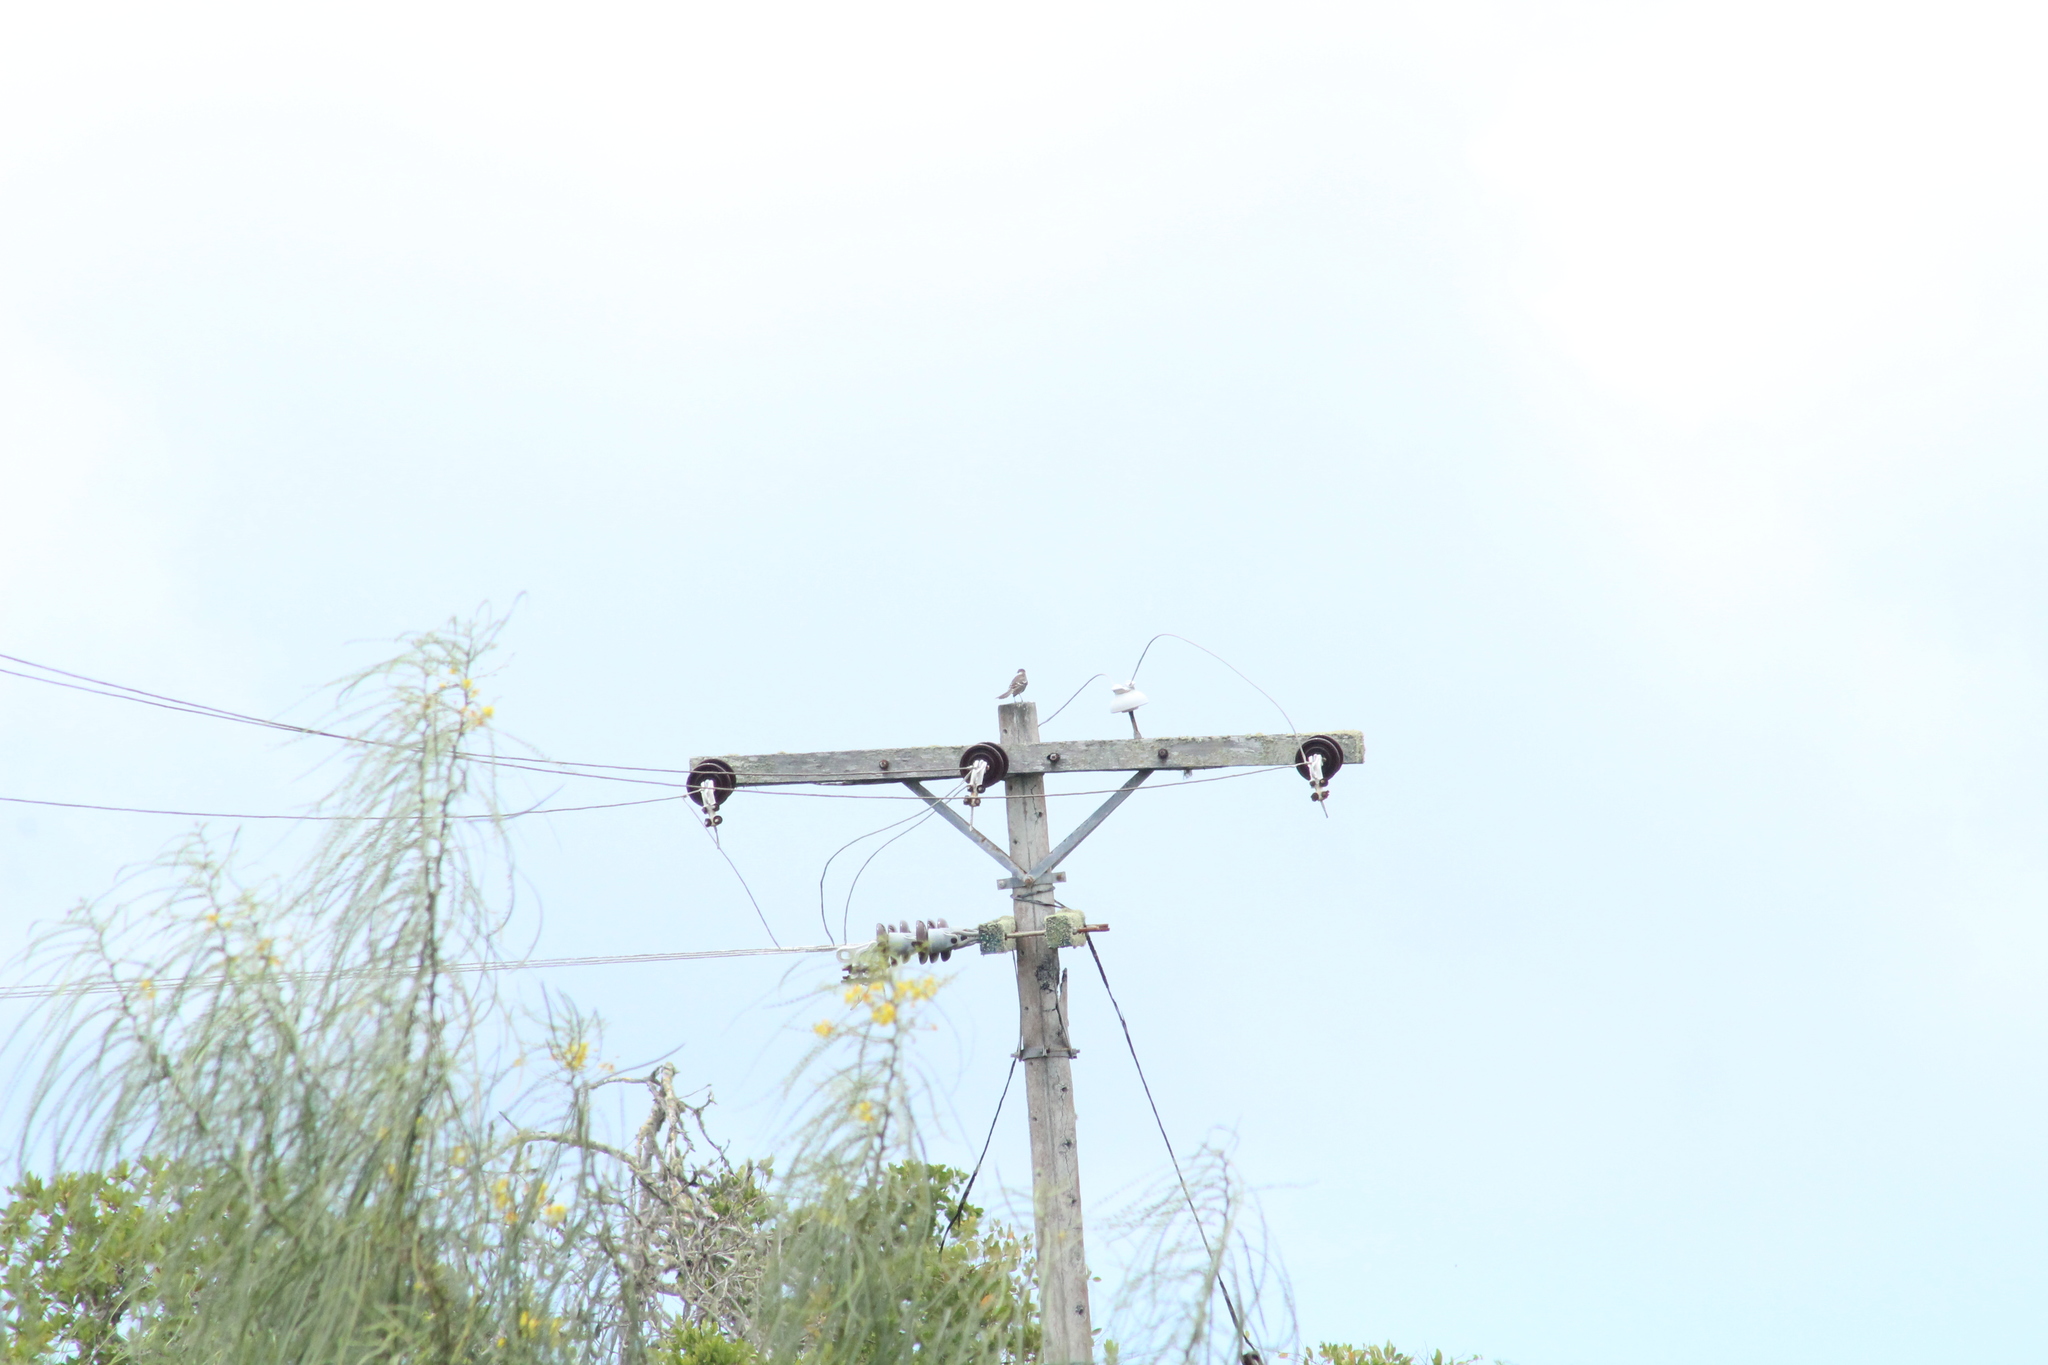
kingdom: Animalia
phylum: Chordata
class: Aves
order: Passeriformes
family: Mimidae
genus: Mimus
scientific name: Mimus parvulus
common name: Galapagos mockingbird
